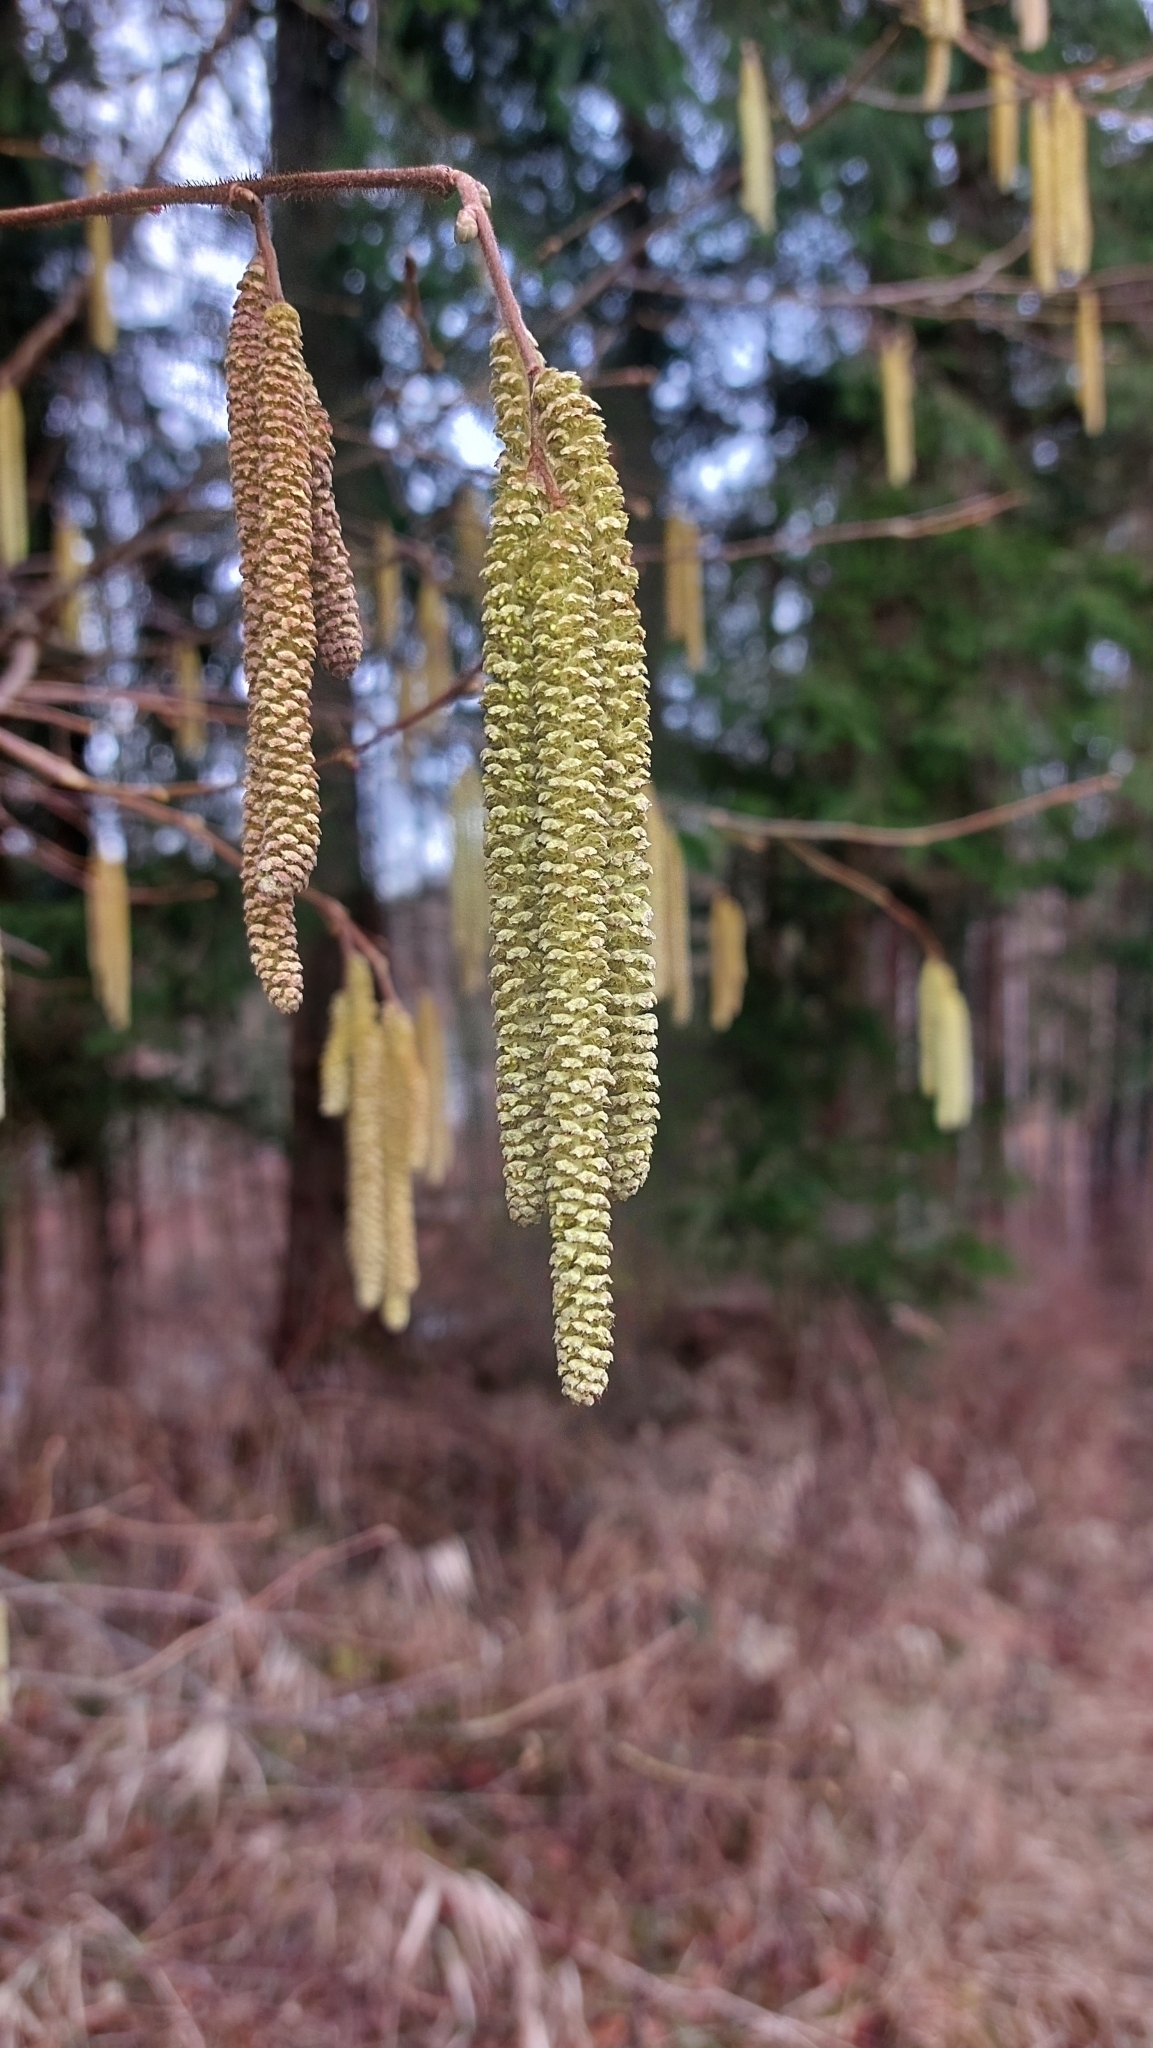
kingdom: Plantae
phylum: Tracheophyta
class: Magnoliopsida
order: Fagales
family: Betulaceae
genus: Corylus
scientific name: Corylus avellana
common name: European hazel
